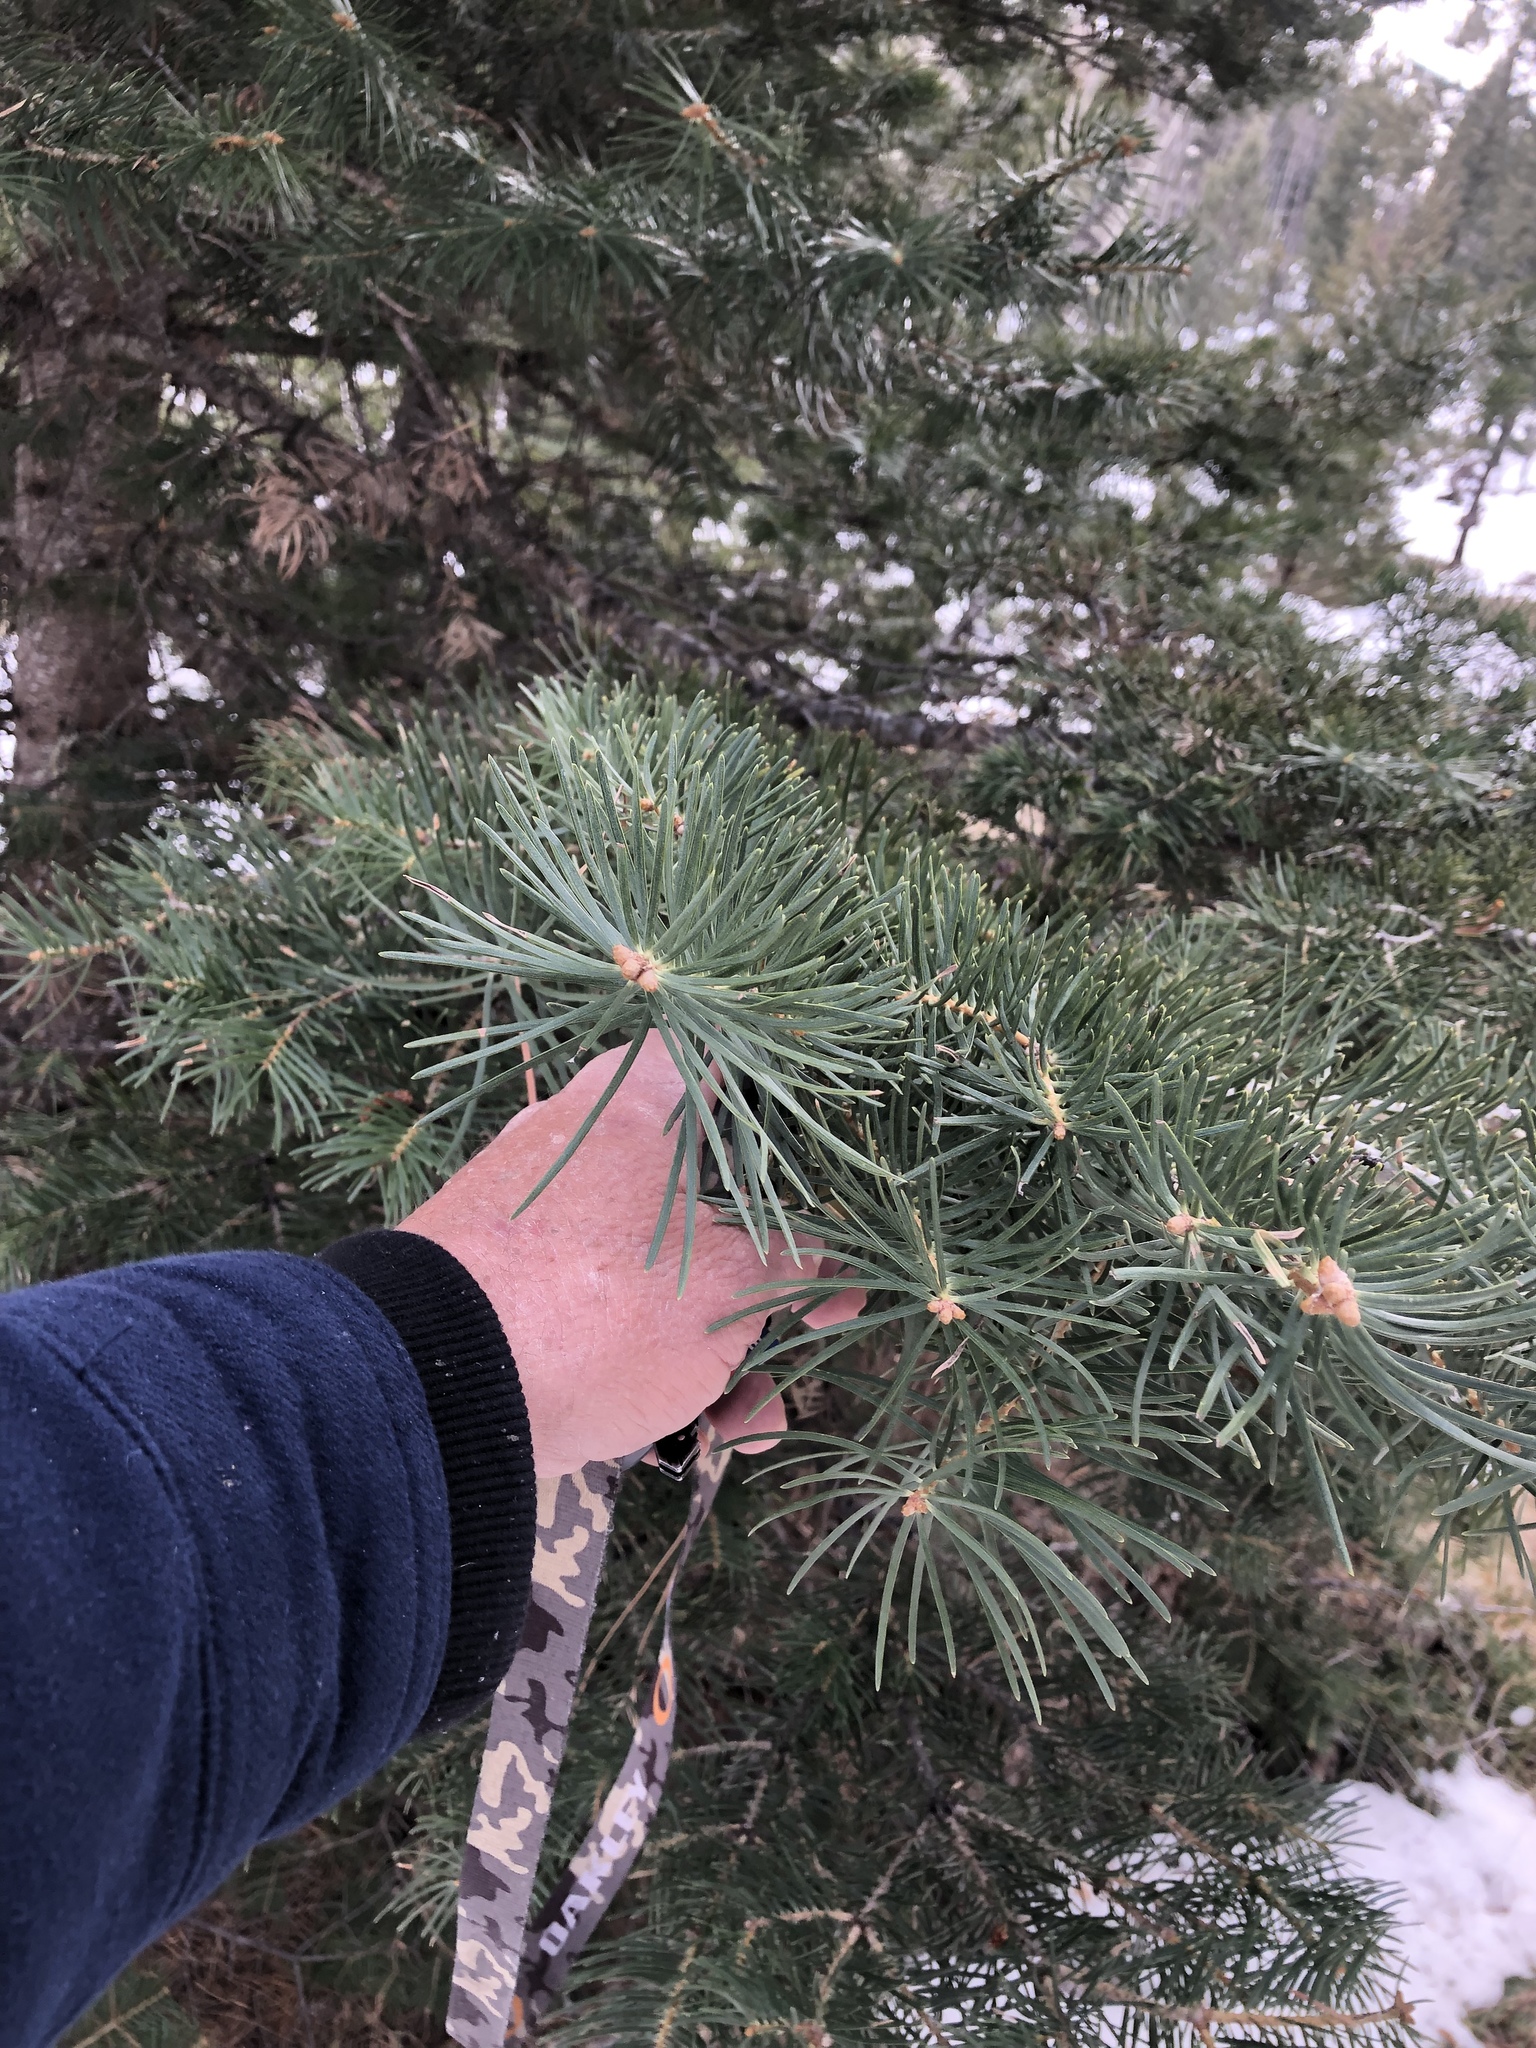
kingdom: Plantae
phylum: Tracheophyta
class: Pinopsida
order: Pinales
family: Pinaceae
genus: Abies
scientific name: Abies concolor
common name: Colorado fir
